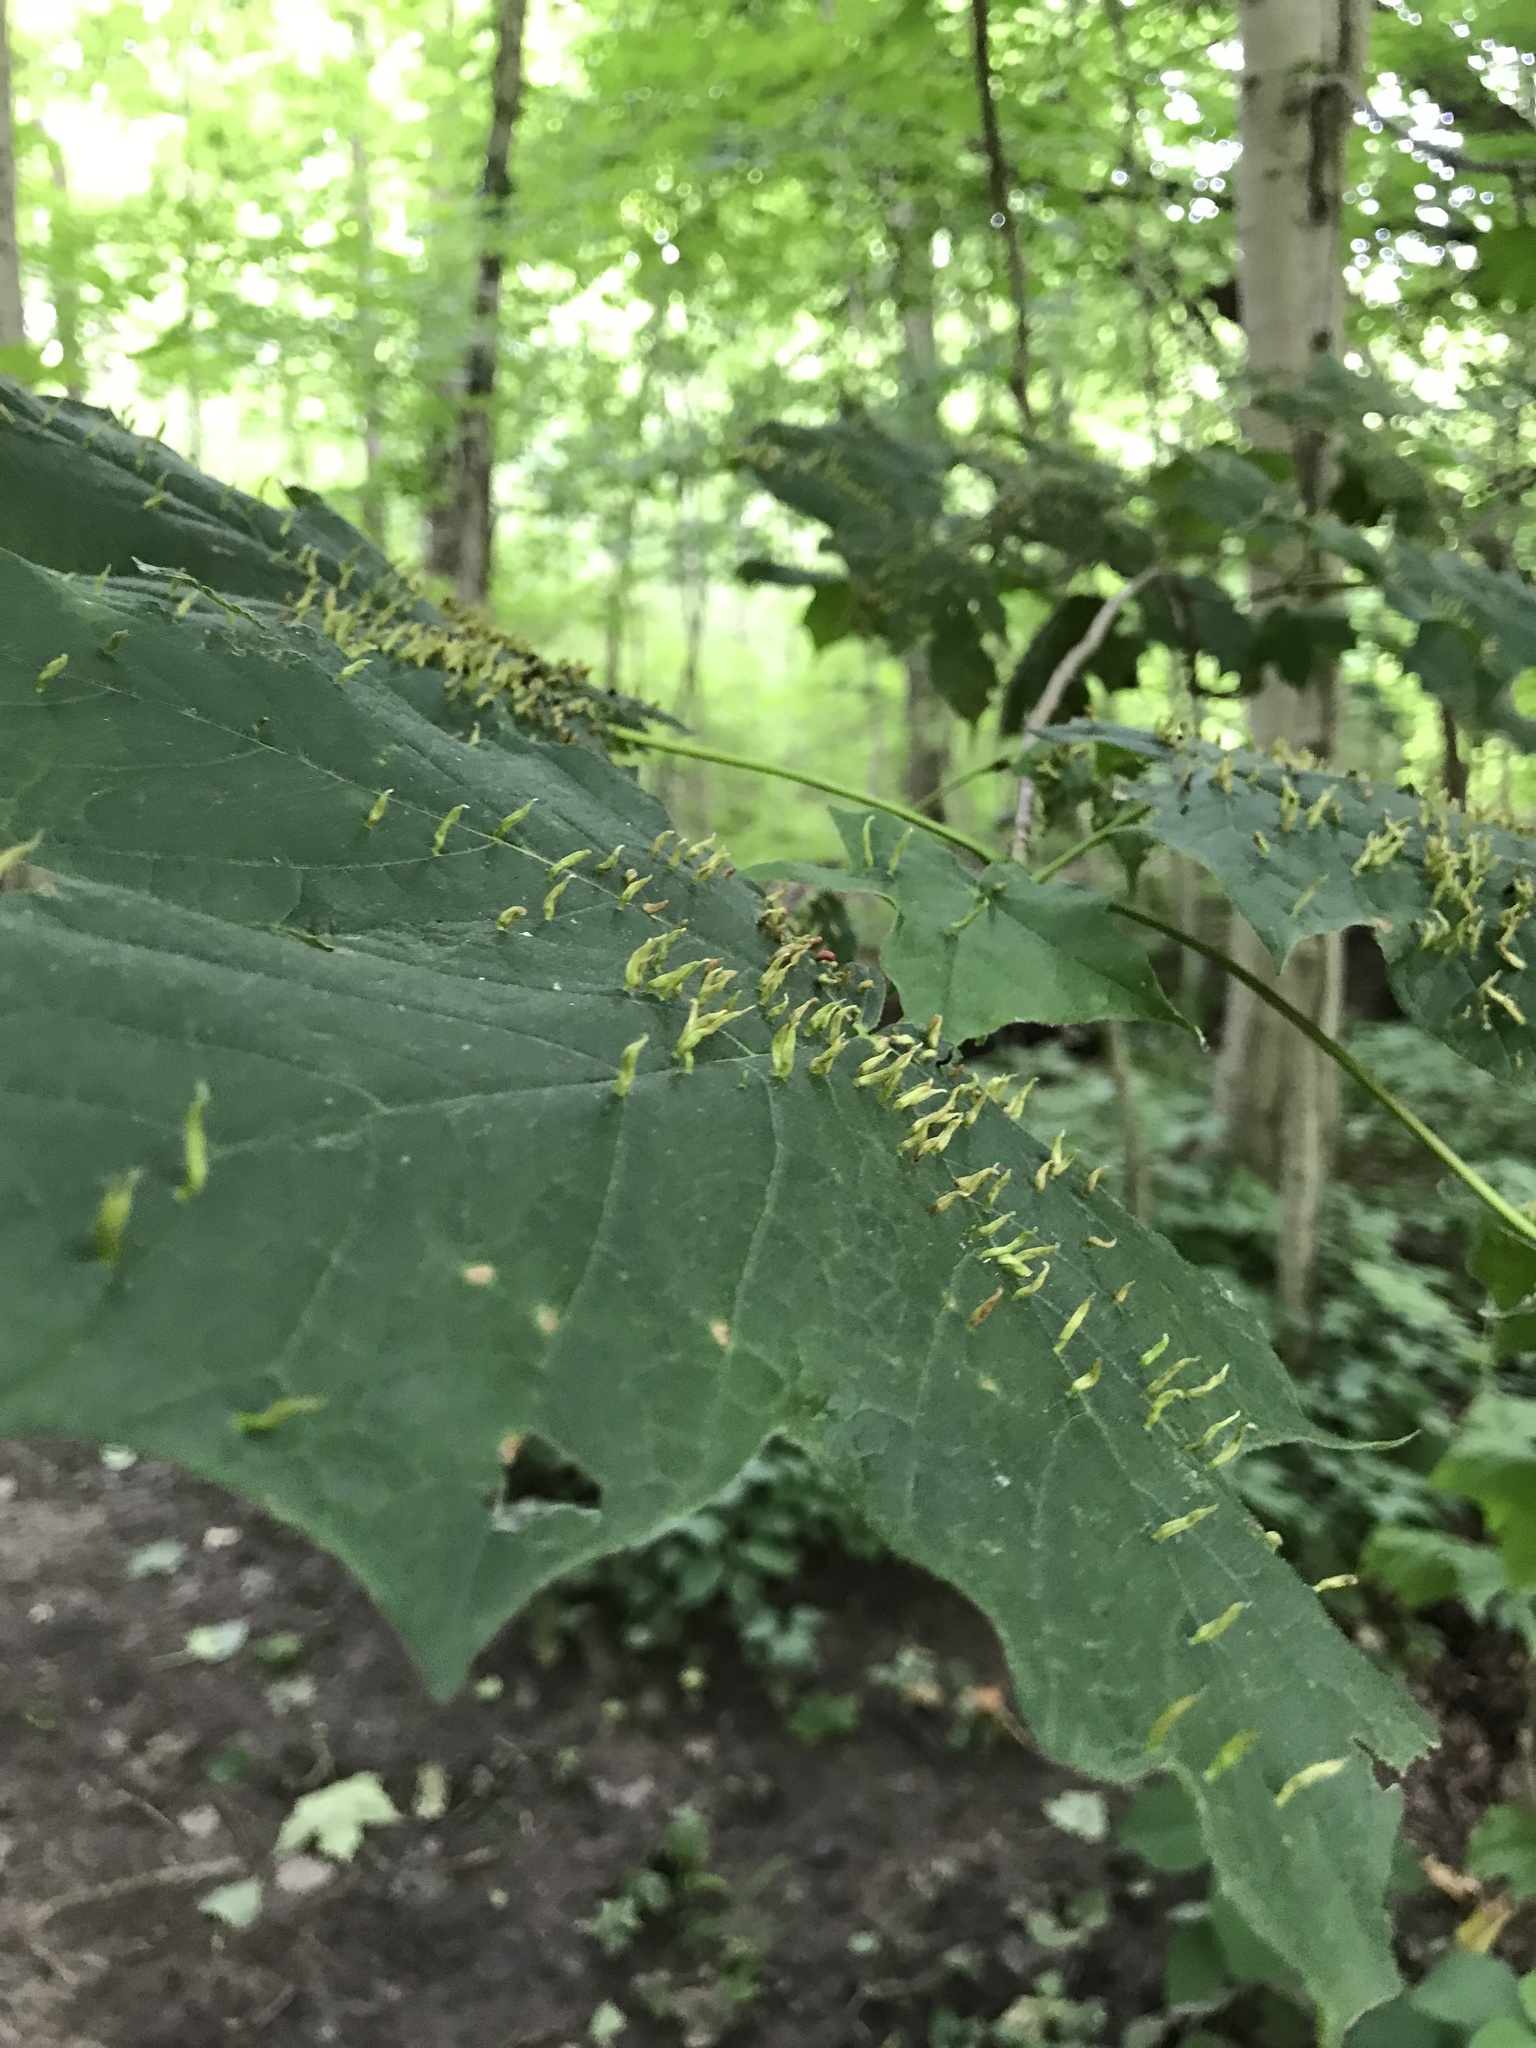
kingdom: Animalia
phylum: Arthropoda
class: Arachnida
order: Trombidiformes
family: Eriophyidae
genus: Vasates
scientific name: Vasates aceriscrumena
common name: Maple spindle gall mite
